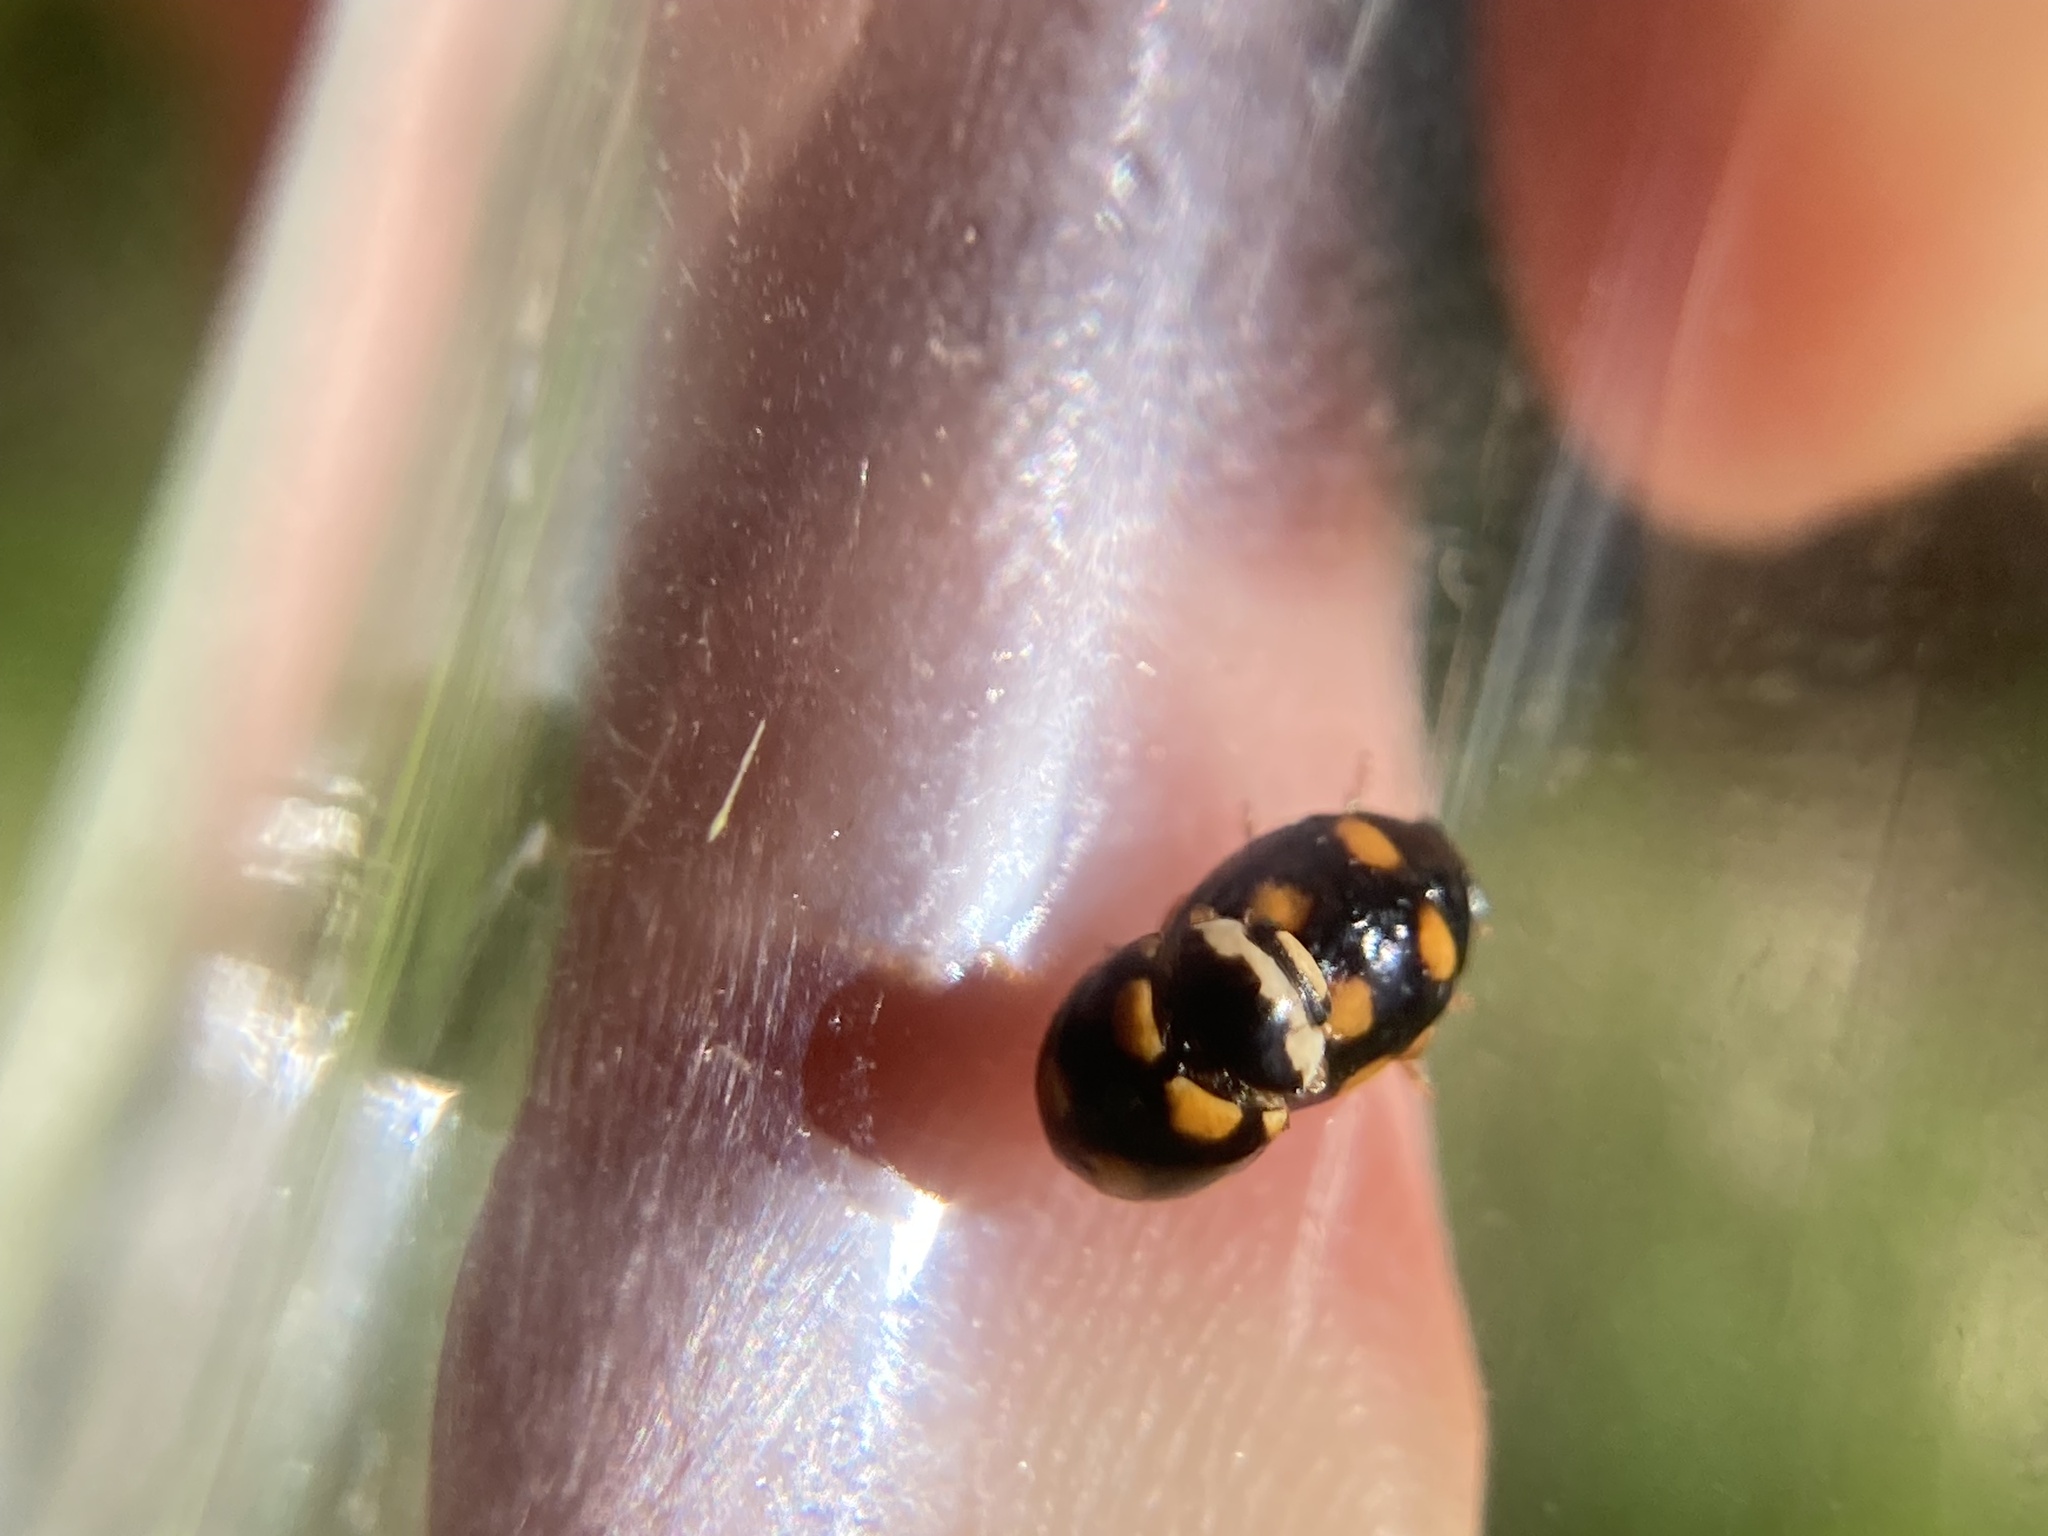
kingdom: Animalia
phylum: Arthropoda
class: Insecta
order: Coleoptera
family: Coccinellidae
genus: Brachiacantha
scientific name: Brachiacantha ursina
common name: Ursine spurleg lady beetle
